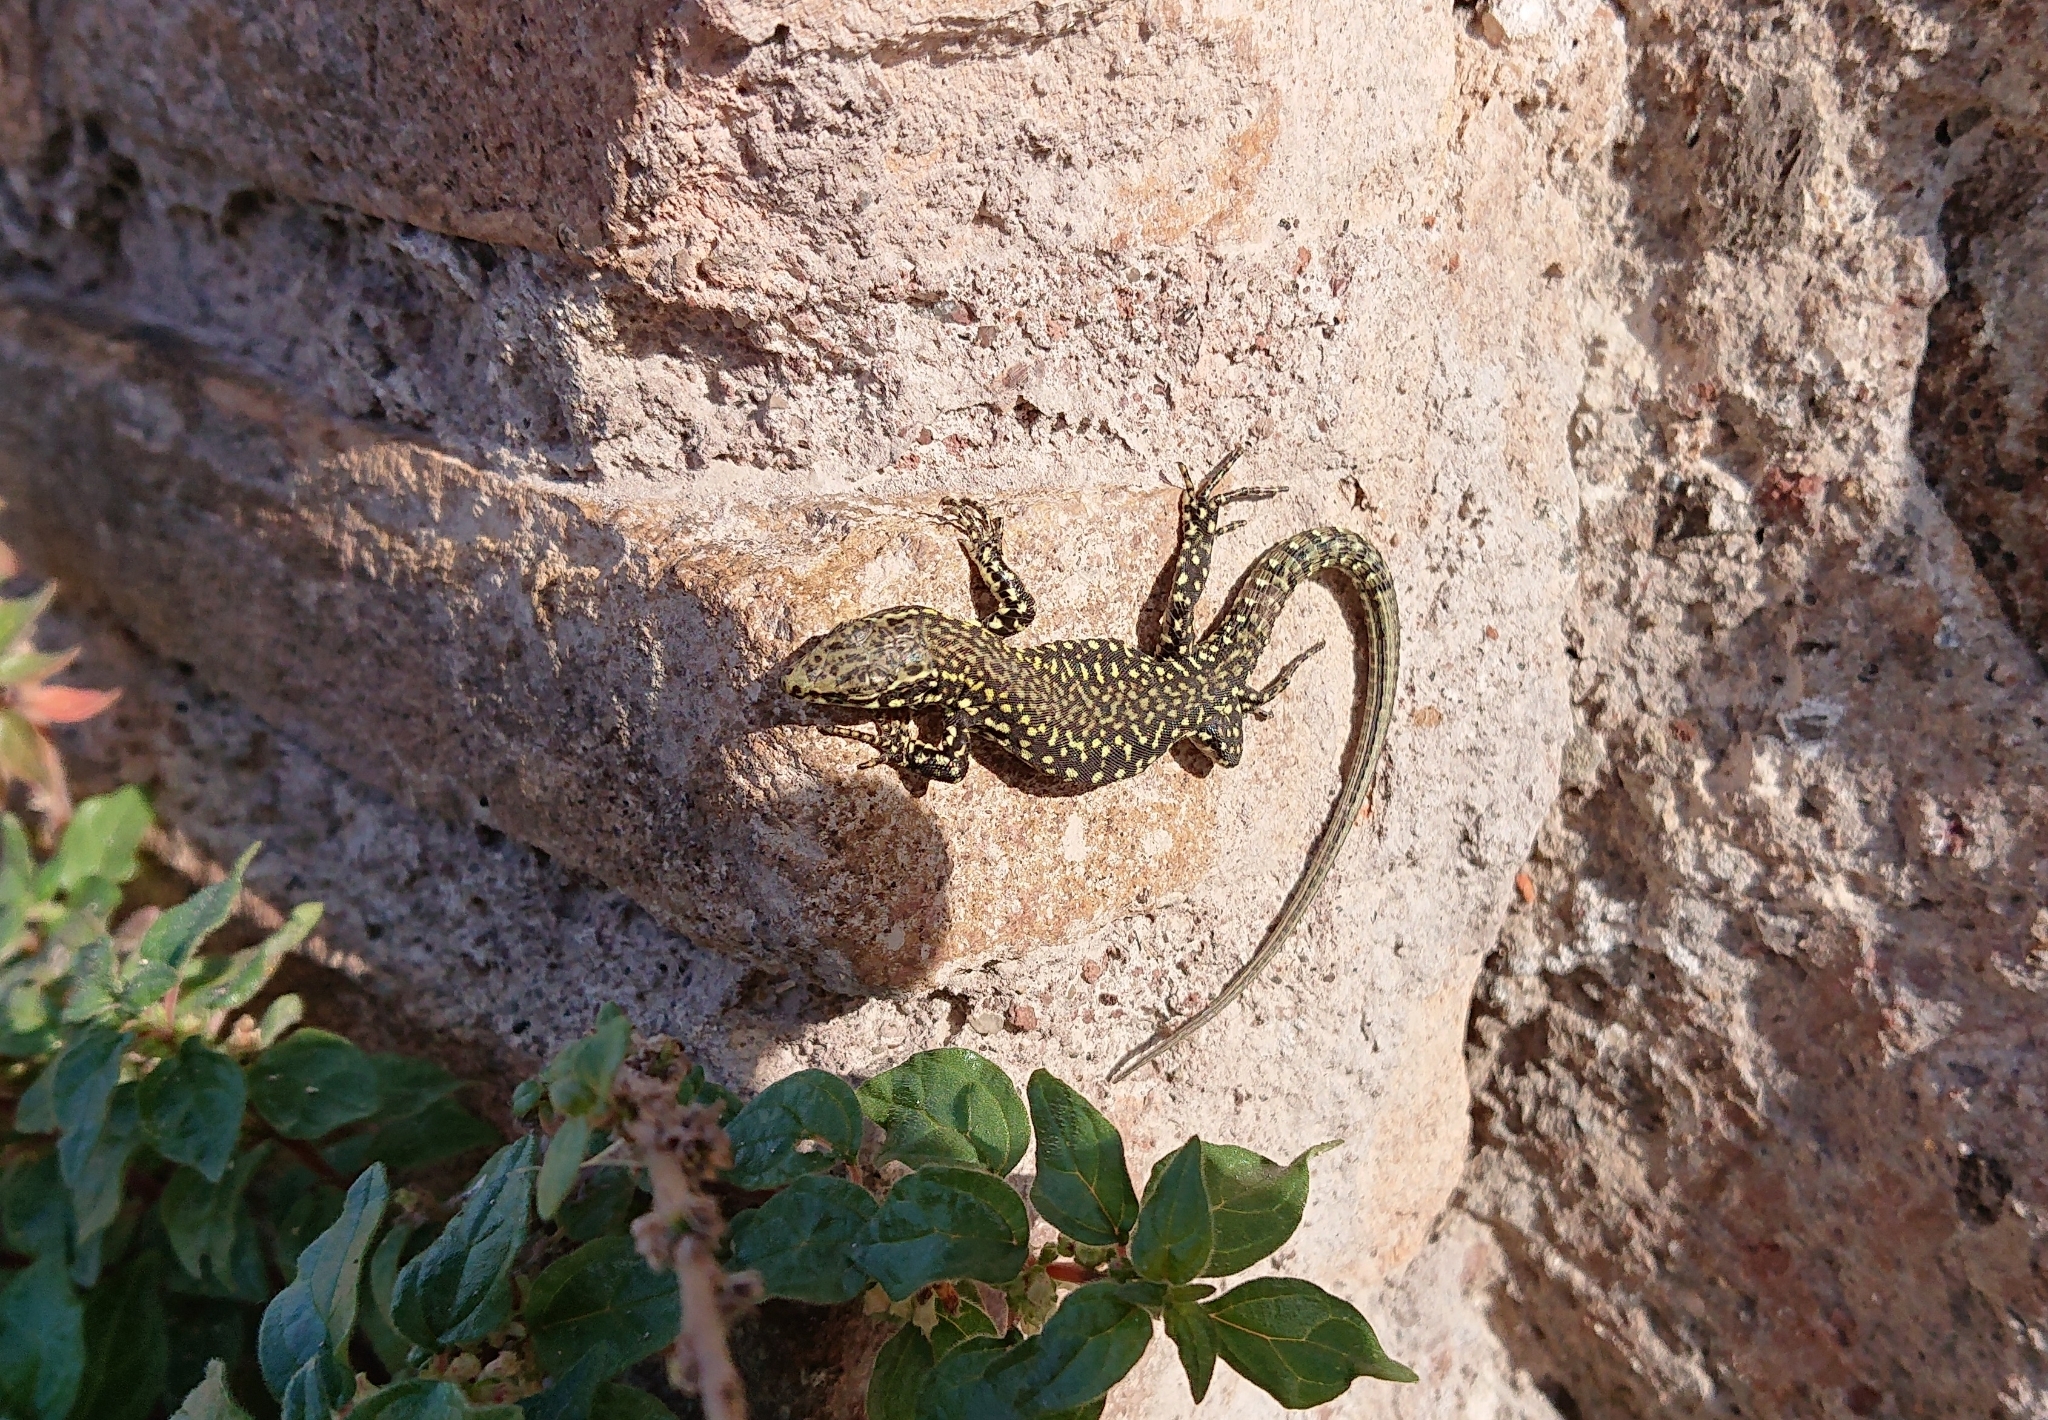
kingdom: Animalia
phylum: Chordata
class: Squamata
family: Lacertidae
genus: Podarcis
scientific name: Podarcis muralis
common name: Common wall lizard
